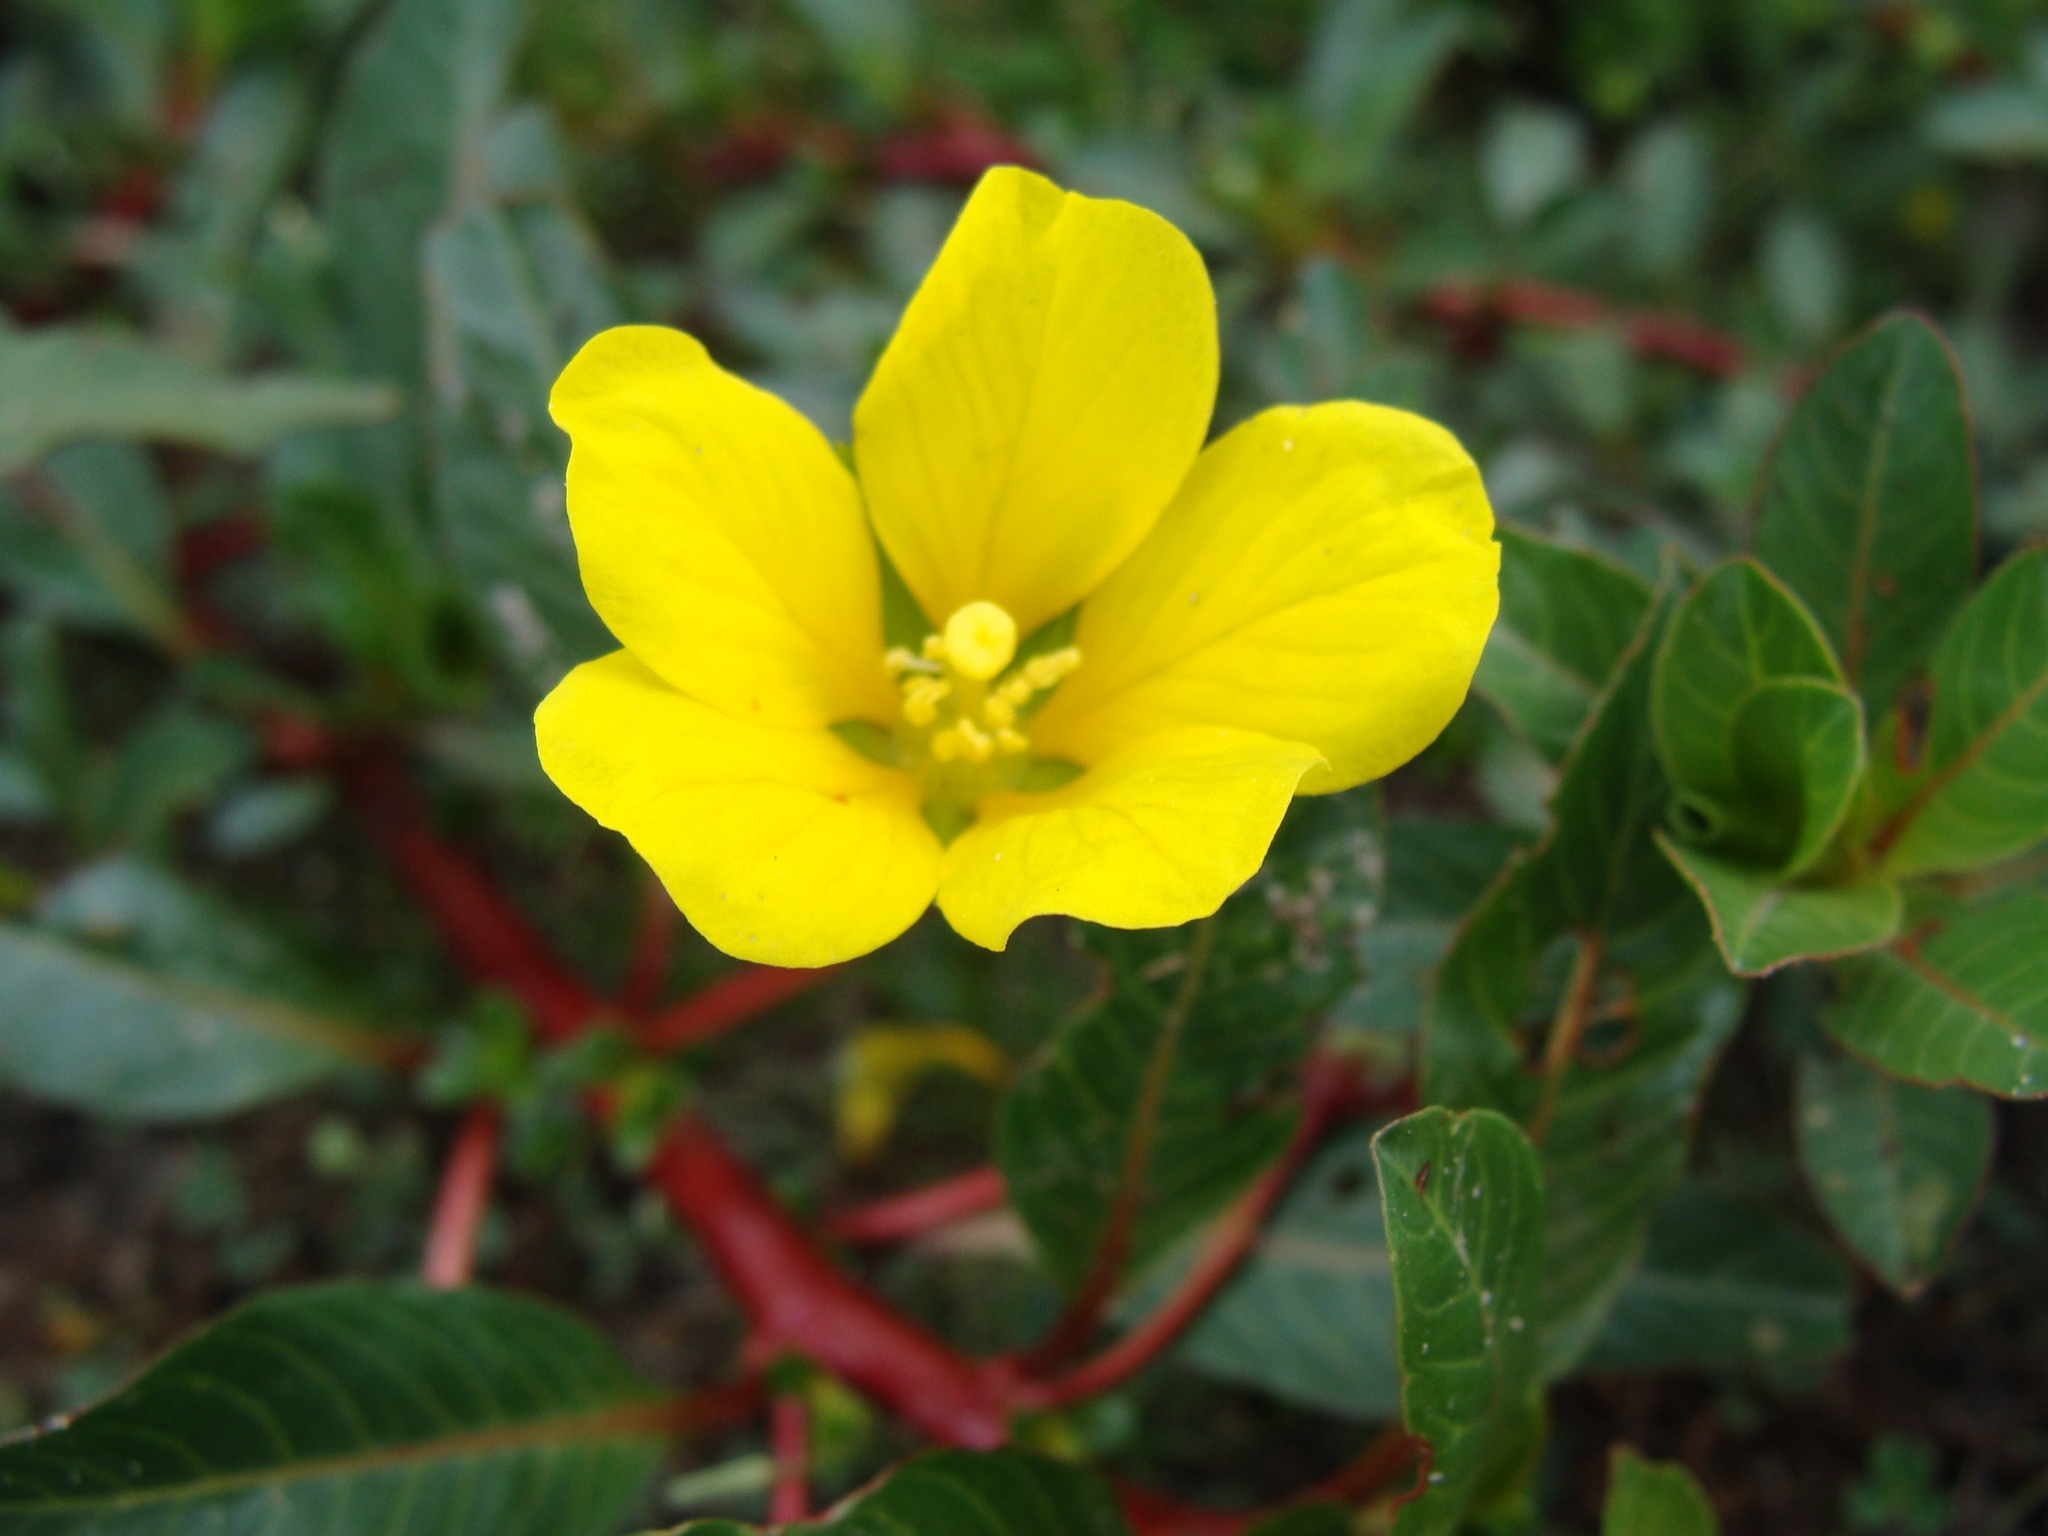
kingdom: Plantae
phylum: Tracheophyta
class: Magnoliopsida
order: Myrtales
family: Onagraceae
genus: Ludwigia
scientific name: Ludwigia peploides
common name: Floating primrose-willow
